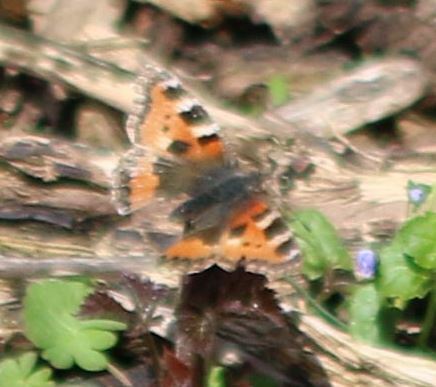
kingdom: Animalia
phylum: Arthropoda
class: Insecta
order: Lepidoptera
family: Nymphalidae
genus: Aglais
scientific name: Aglais urticae
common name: Small tortoiseshell
